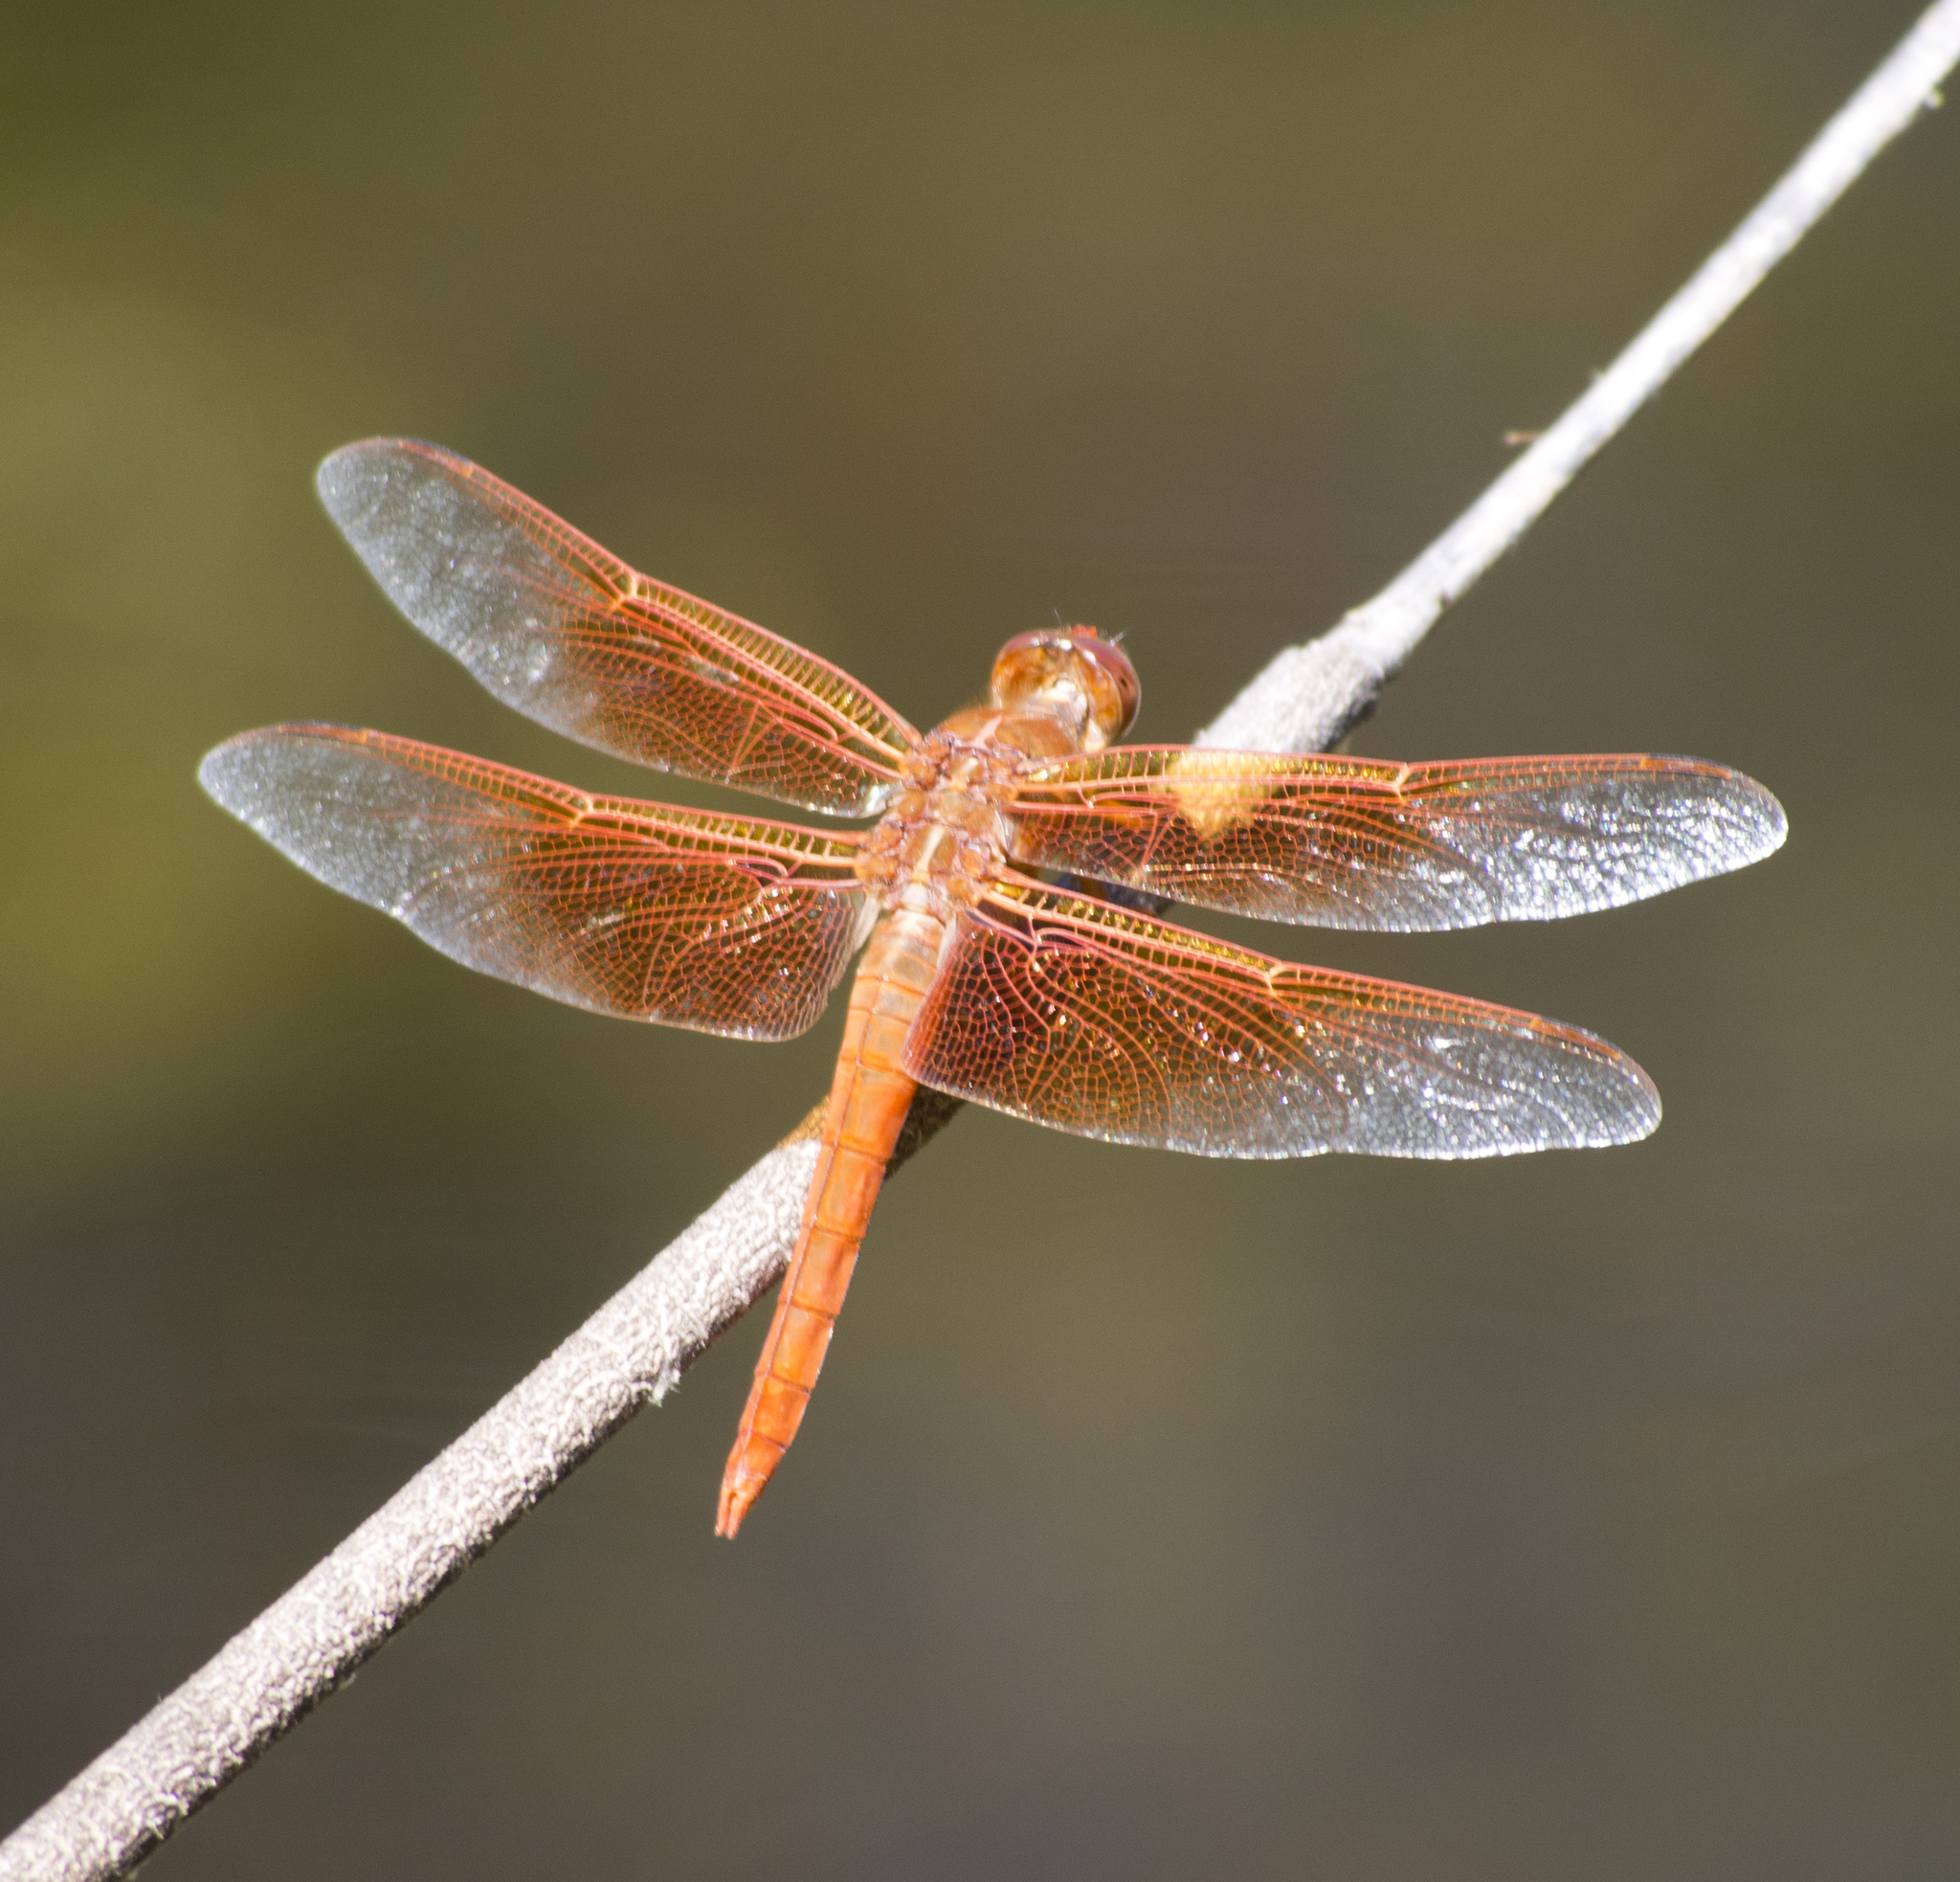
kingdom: Animalia
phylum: Arthropoda
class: Insecta
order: Odonata
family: Libellulidae
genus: Libellula
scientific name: Libellula saturata
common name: Flame skimmer
